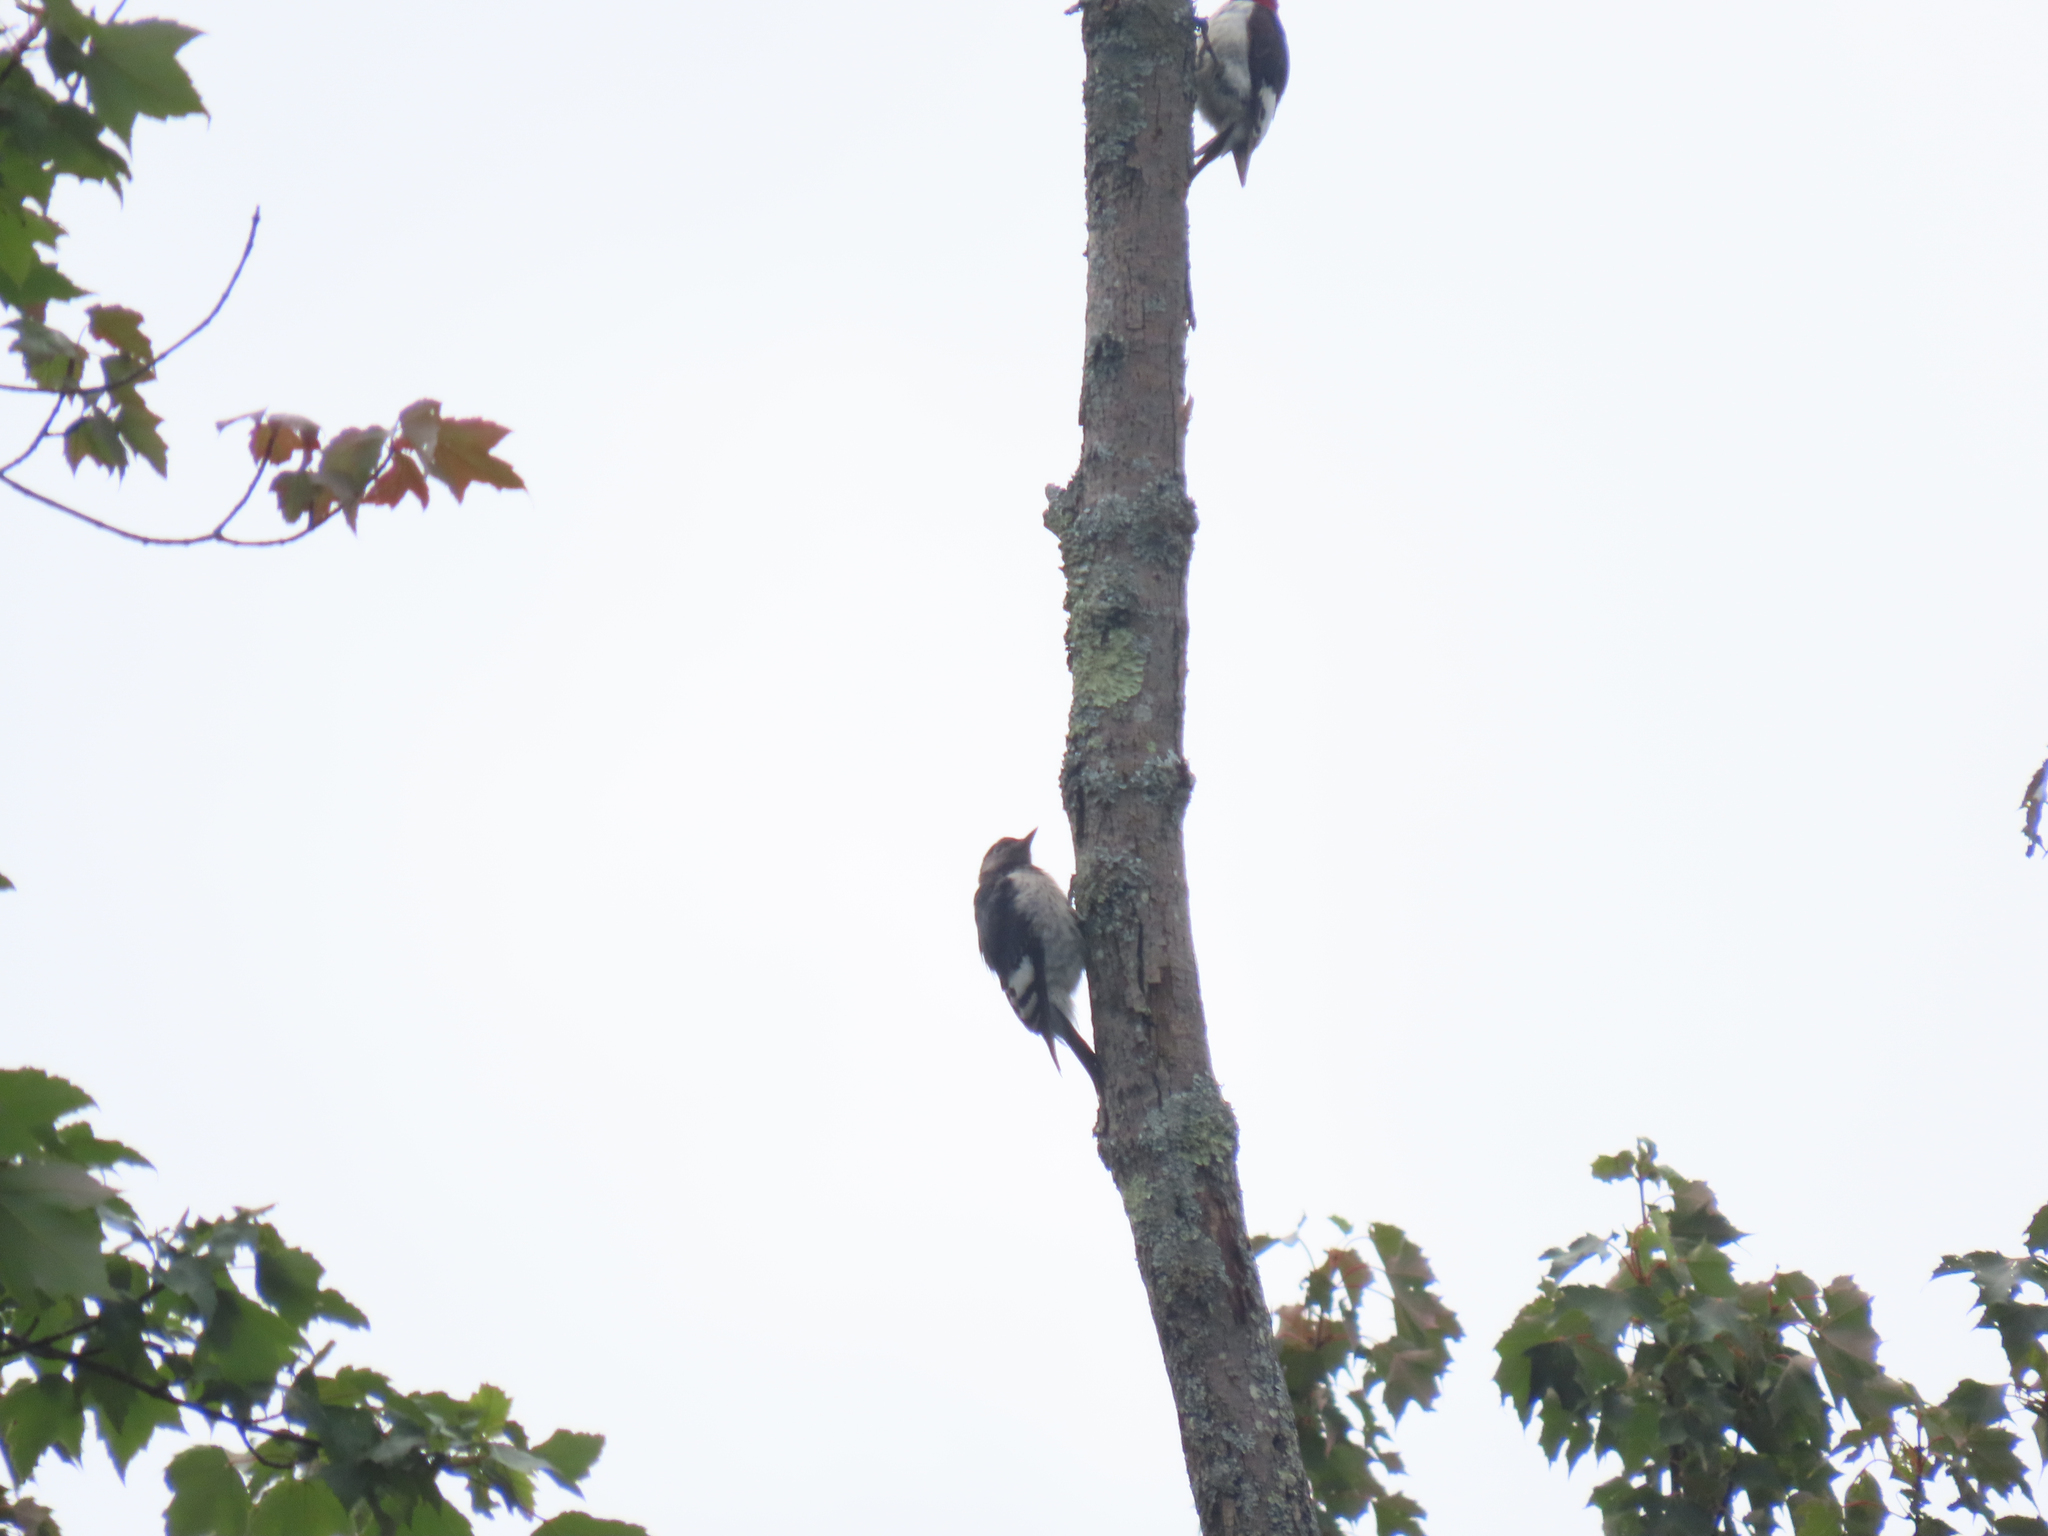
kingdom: Animalia
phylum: Chordata
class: Aves
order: Piciformes
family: Picidae
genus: Melanerpes
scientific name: Melanerpes erythrocephalus
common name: Red-headed woodpecker
